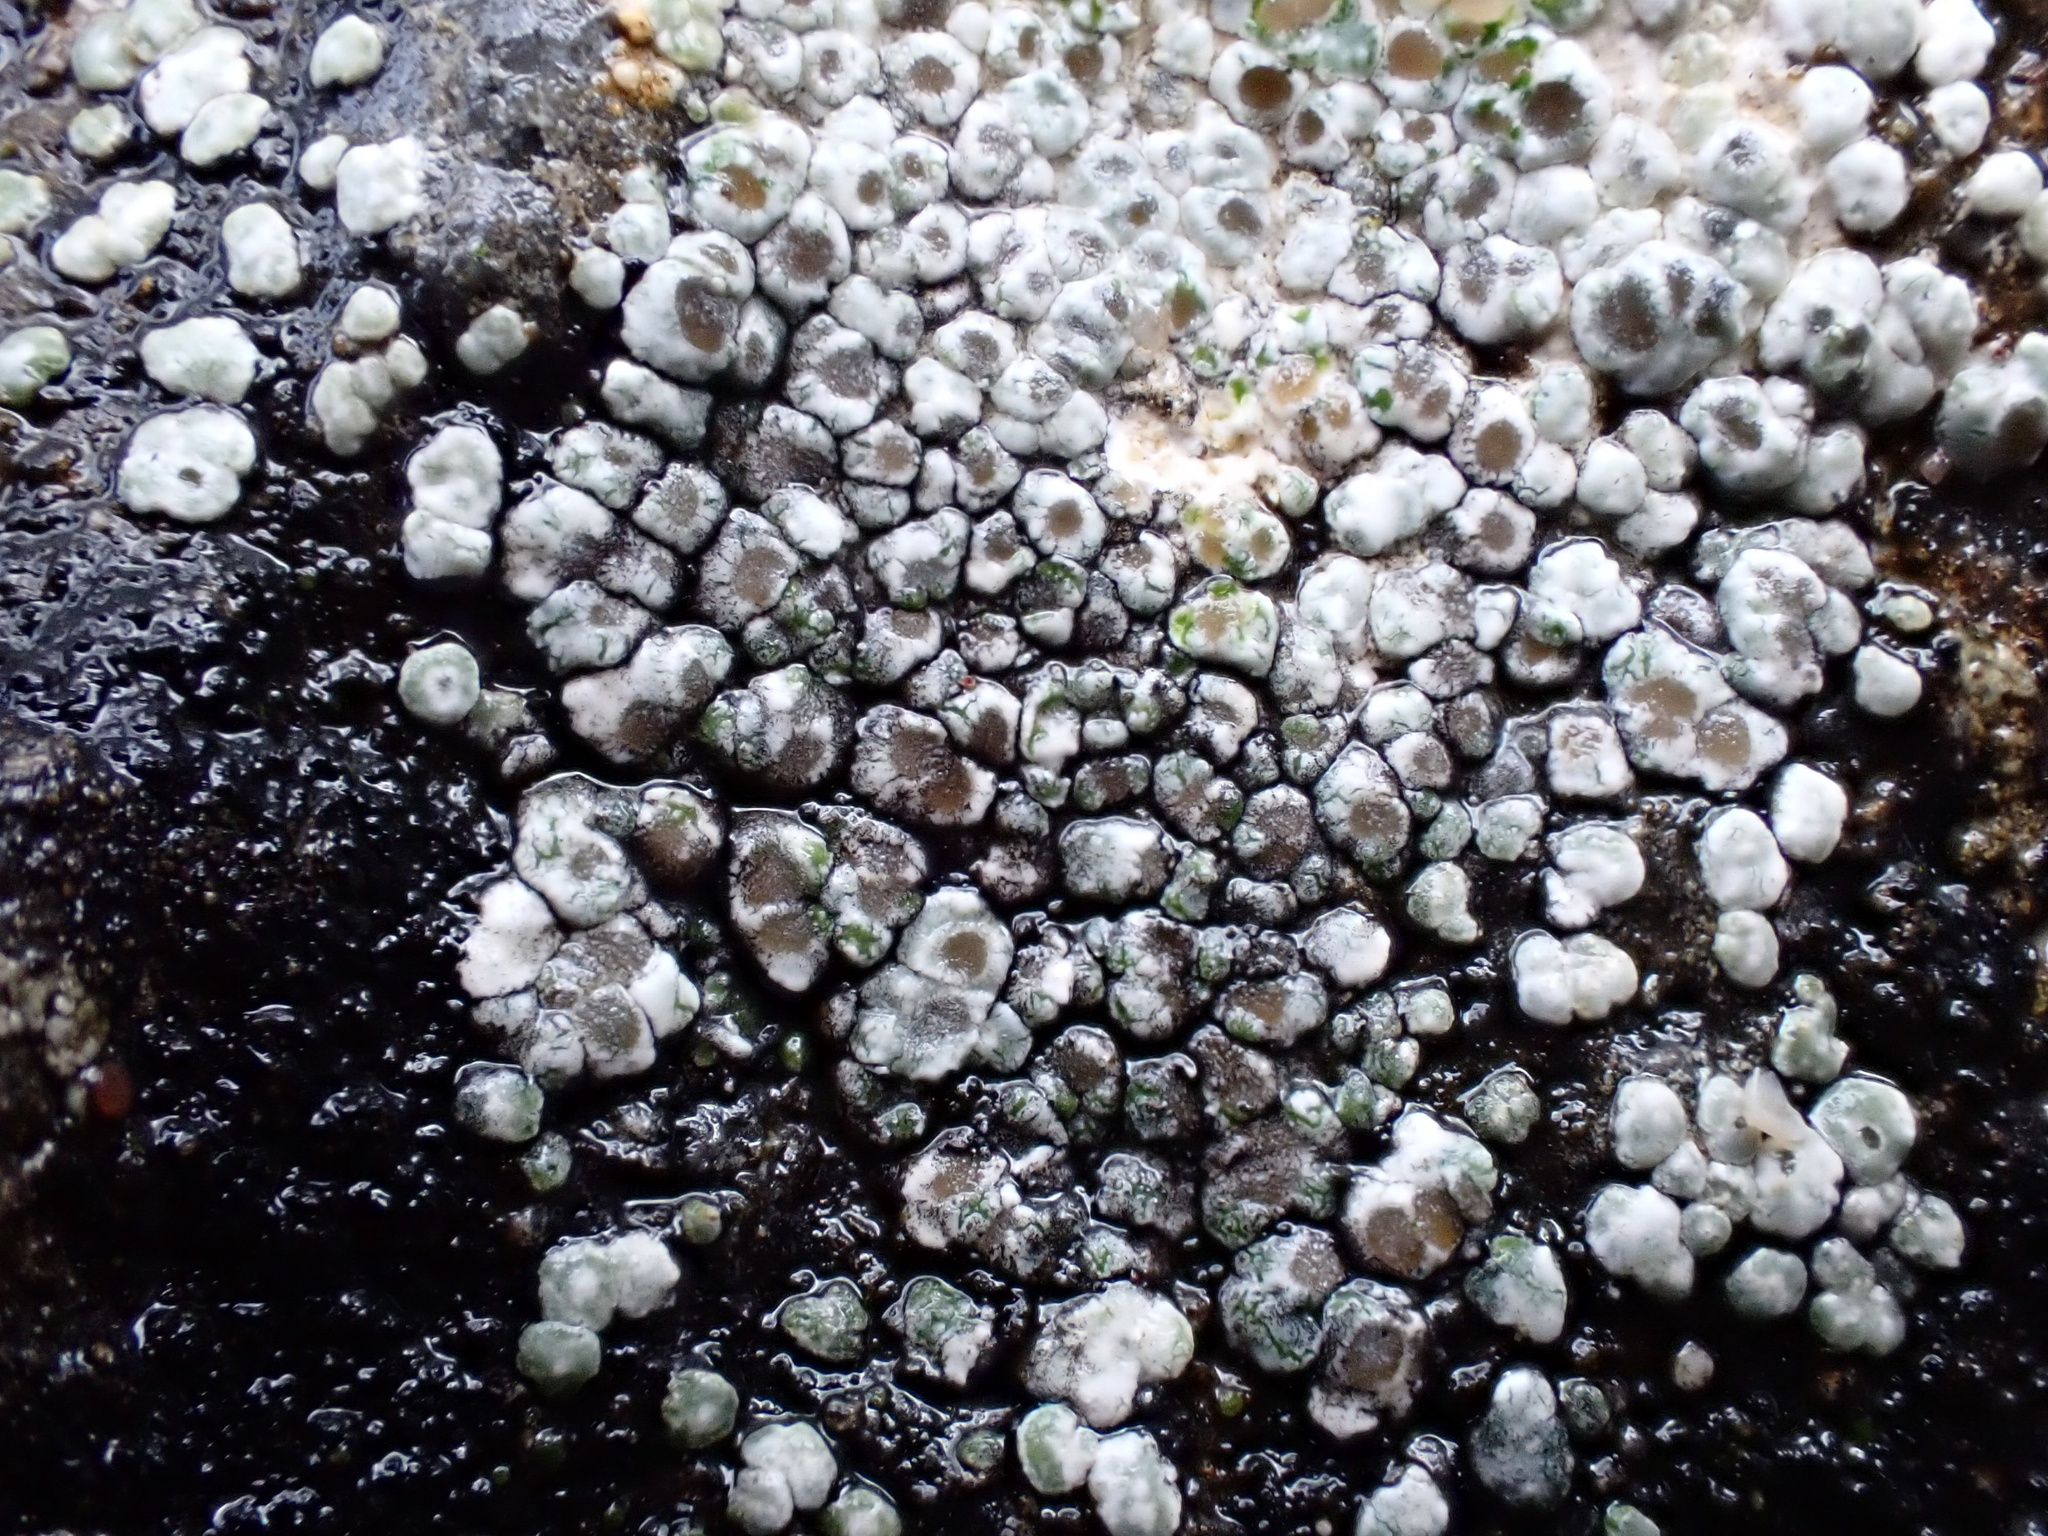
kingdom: Fungi
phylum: Ascomycota
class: Lecanoromycetes
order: Pertusariales
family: Megasporaceae
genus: Circinaria
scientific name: Circinaria contorta
